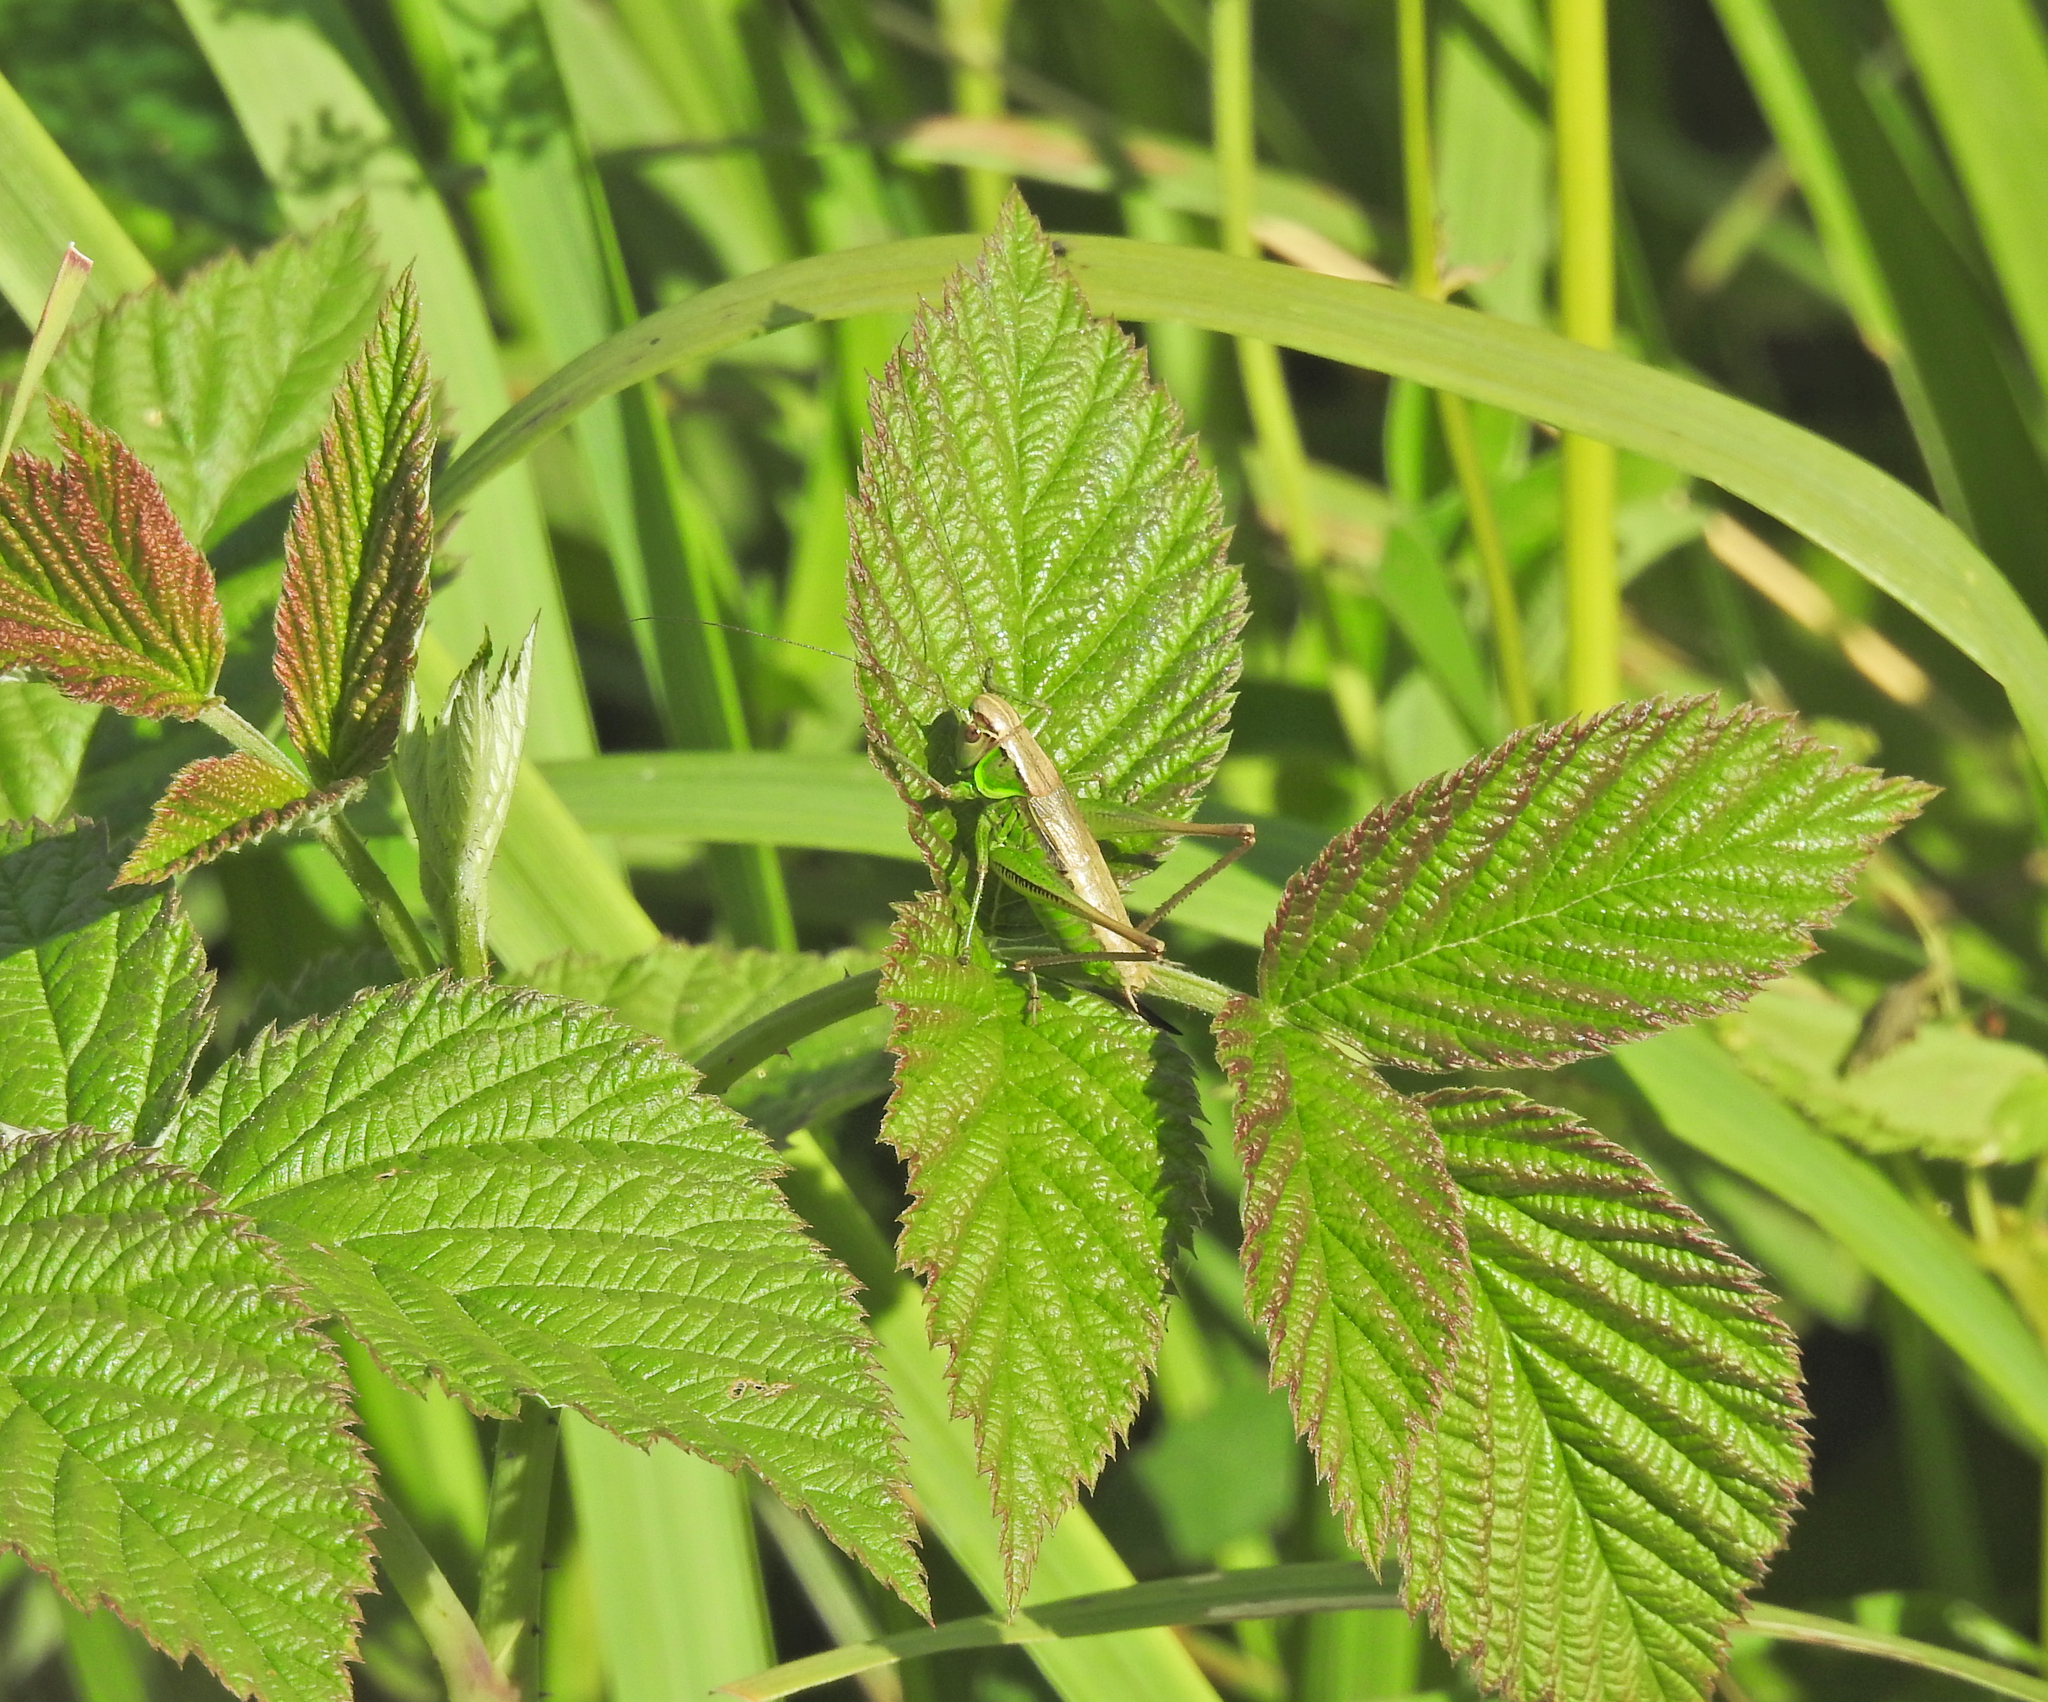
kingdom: Animalia
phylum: Arthropoda
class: Insecta
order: Orthoptera
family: Tettigoniidae
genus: Roeseliana
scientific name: Roeseliana roeselii
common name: Roesel's bush cricket
